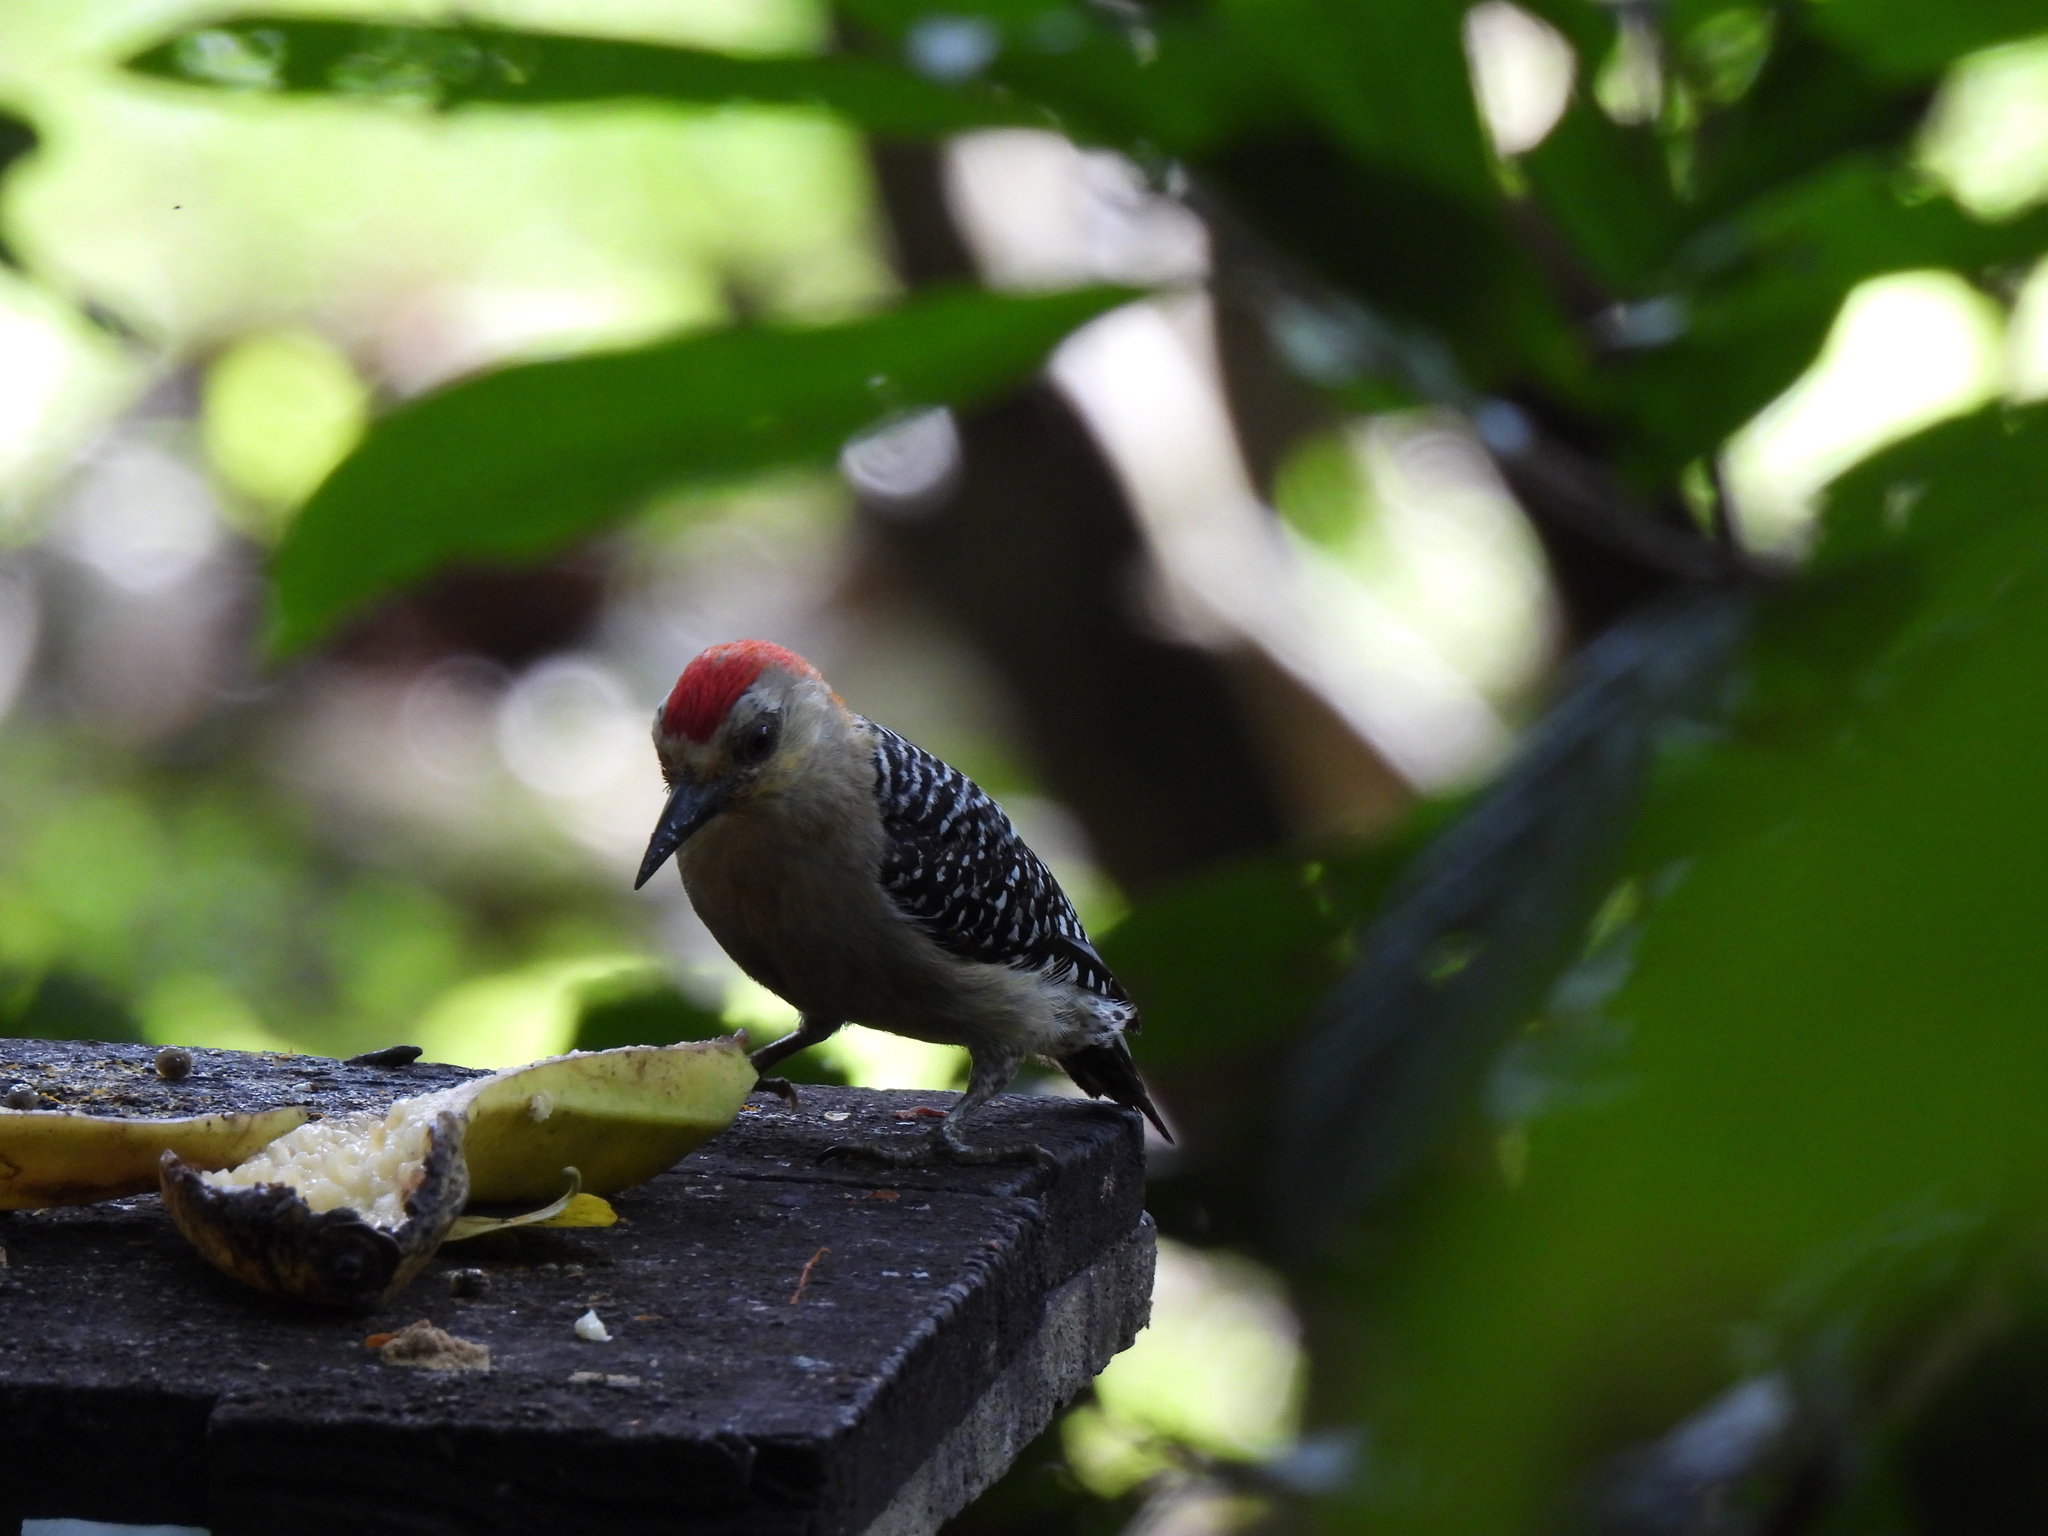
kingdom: Animalia
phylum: Chordata
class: Aves
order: Piciformes
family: Picidae
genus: Melanerpes
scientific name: Melanerpes rubricapillus
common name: Red-crowned woodpecker
